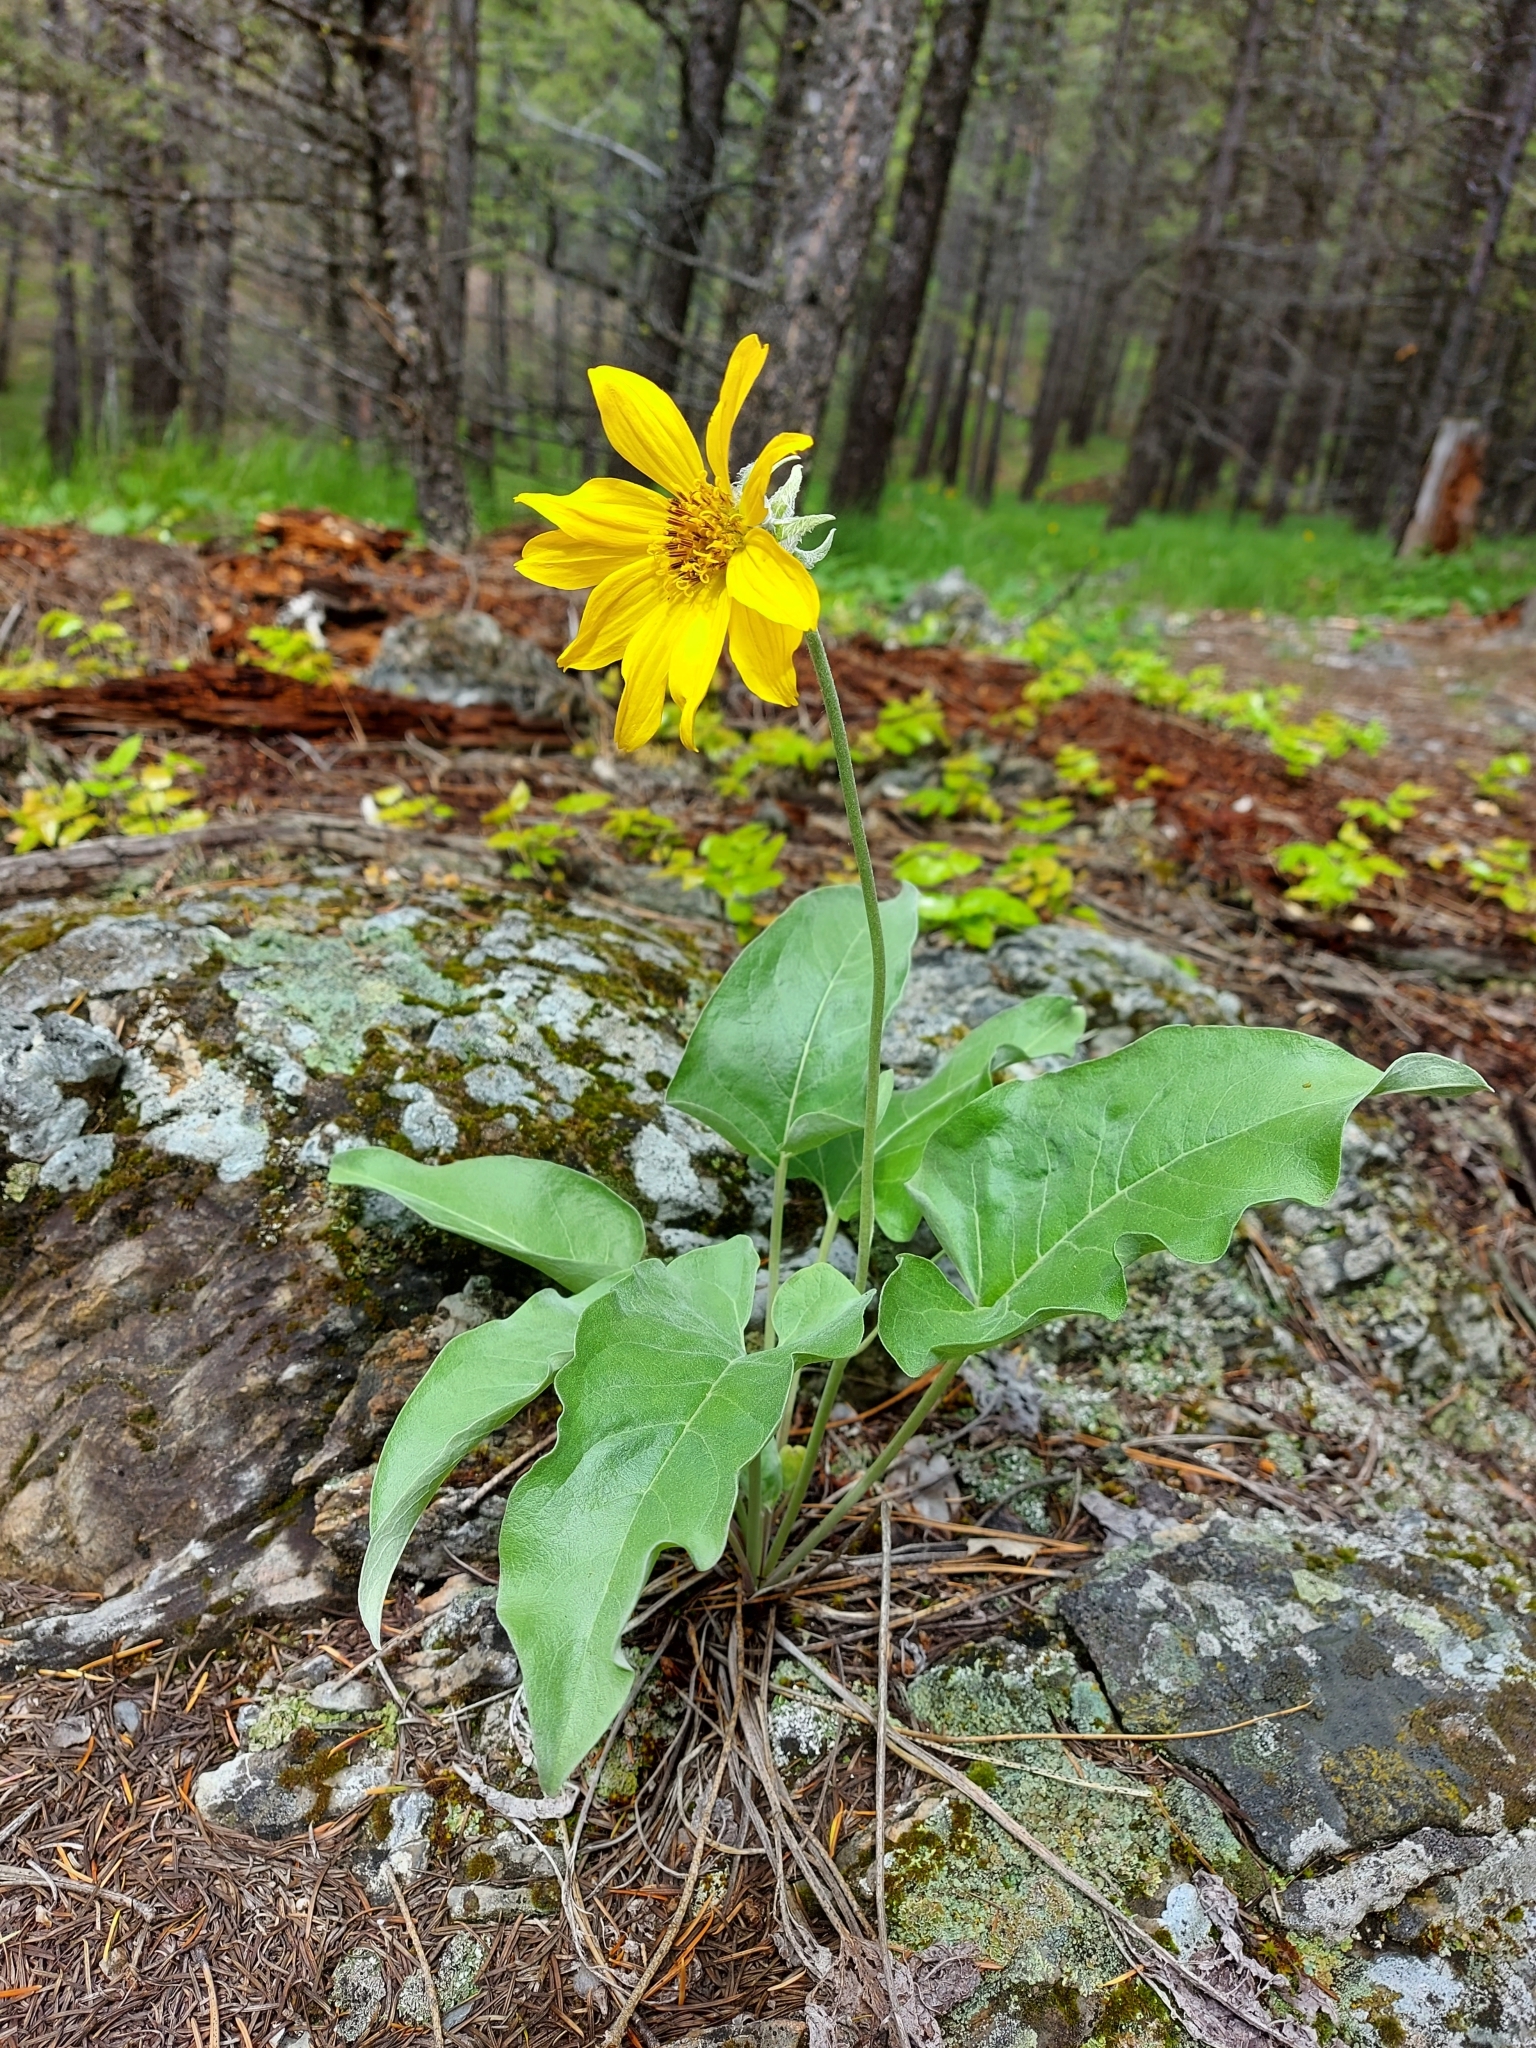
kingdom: Plantae
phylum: Tracheophyta
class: Magnoliopsida
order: Asterales
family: Asteraceae
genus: Wyethia
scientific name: Wyethia sagittata
